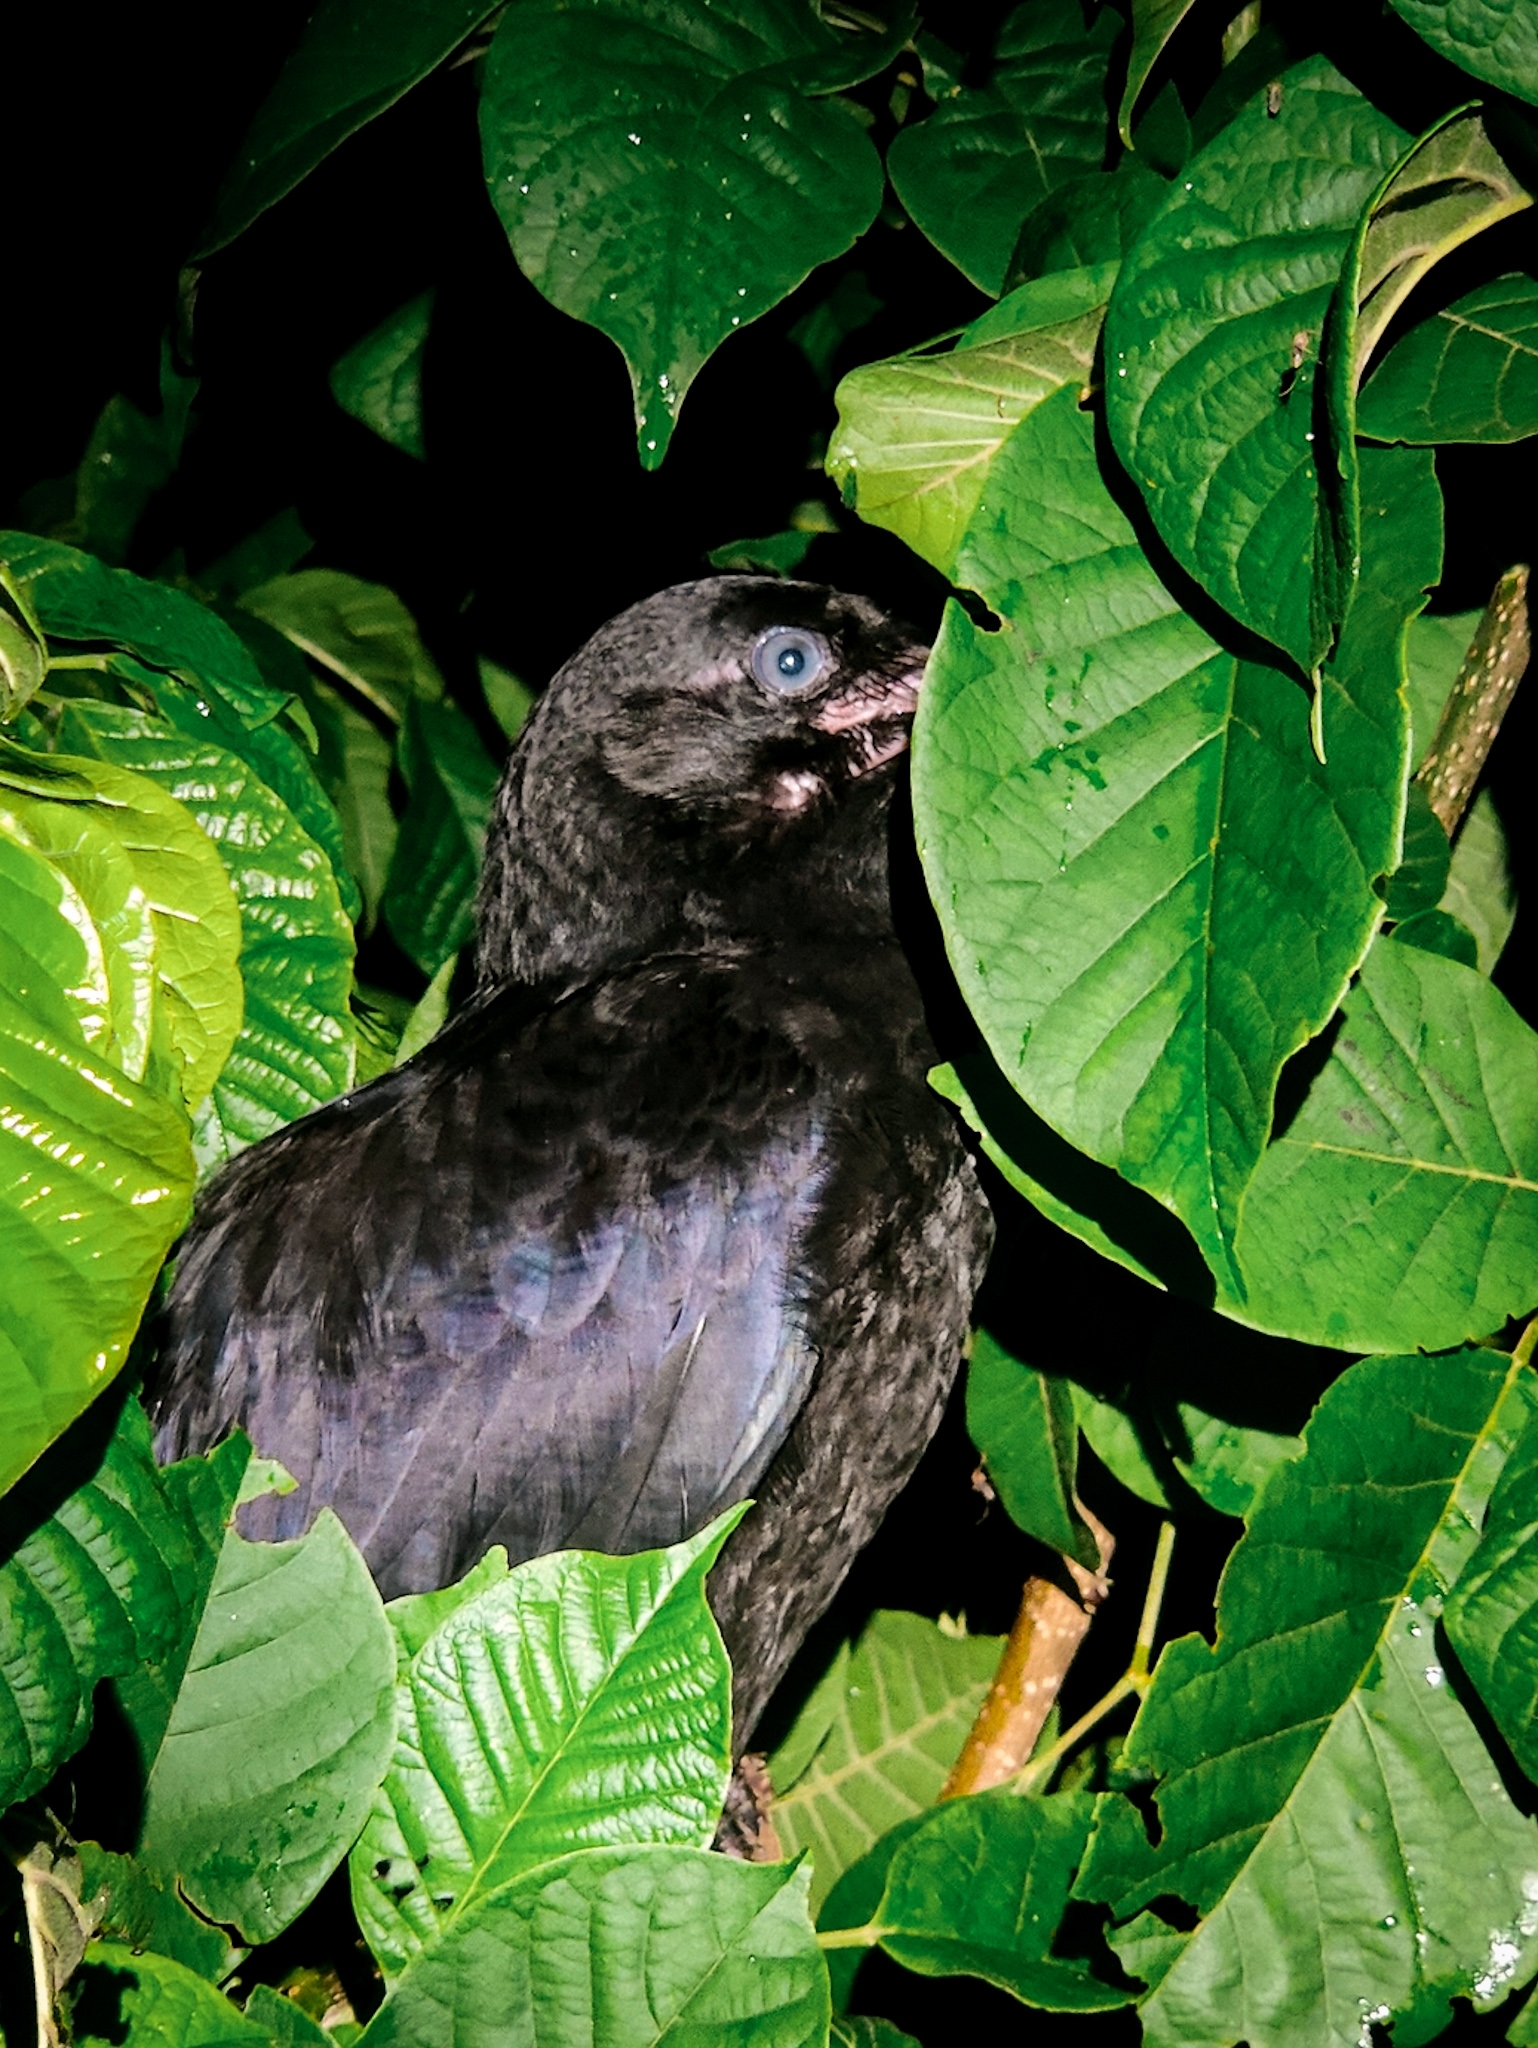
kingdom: Animalia
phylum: Chordata
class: Aves
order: Passeriformes
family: Corvidae
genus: Corvus
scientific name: Corvus macrorhynchos
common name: Large-billed crow
